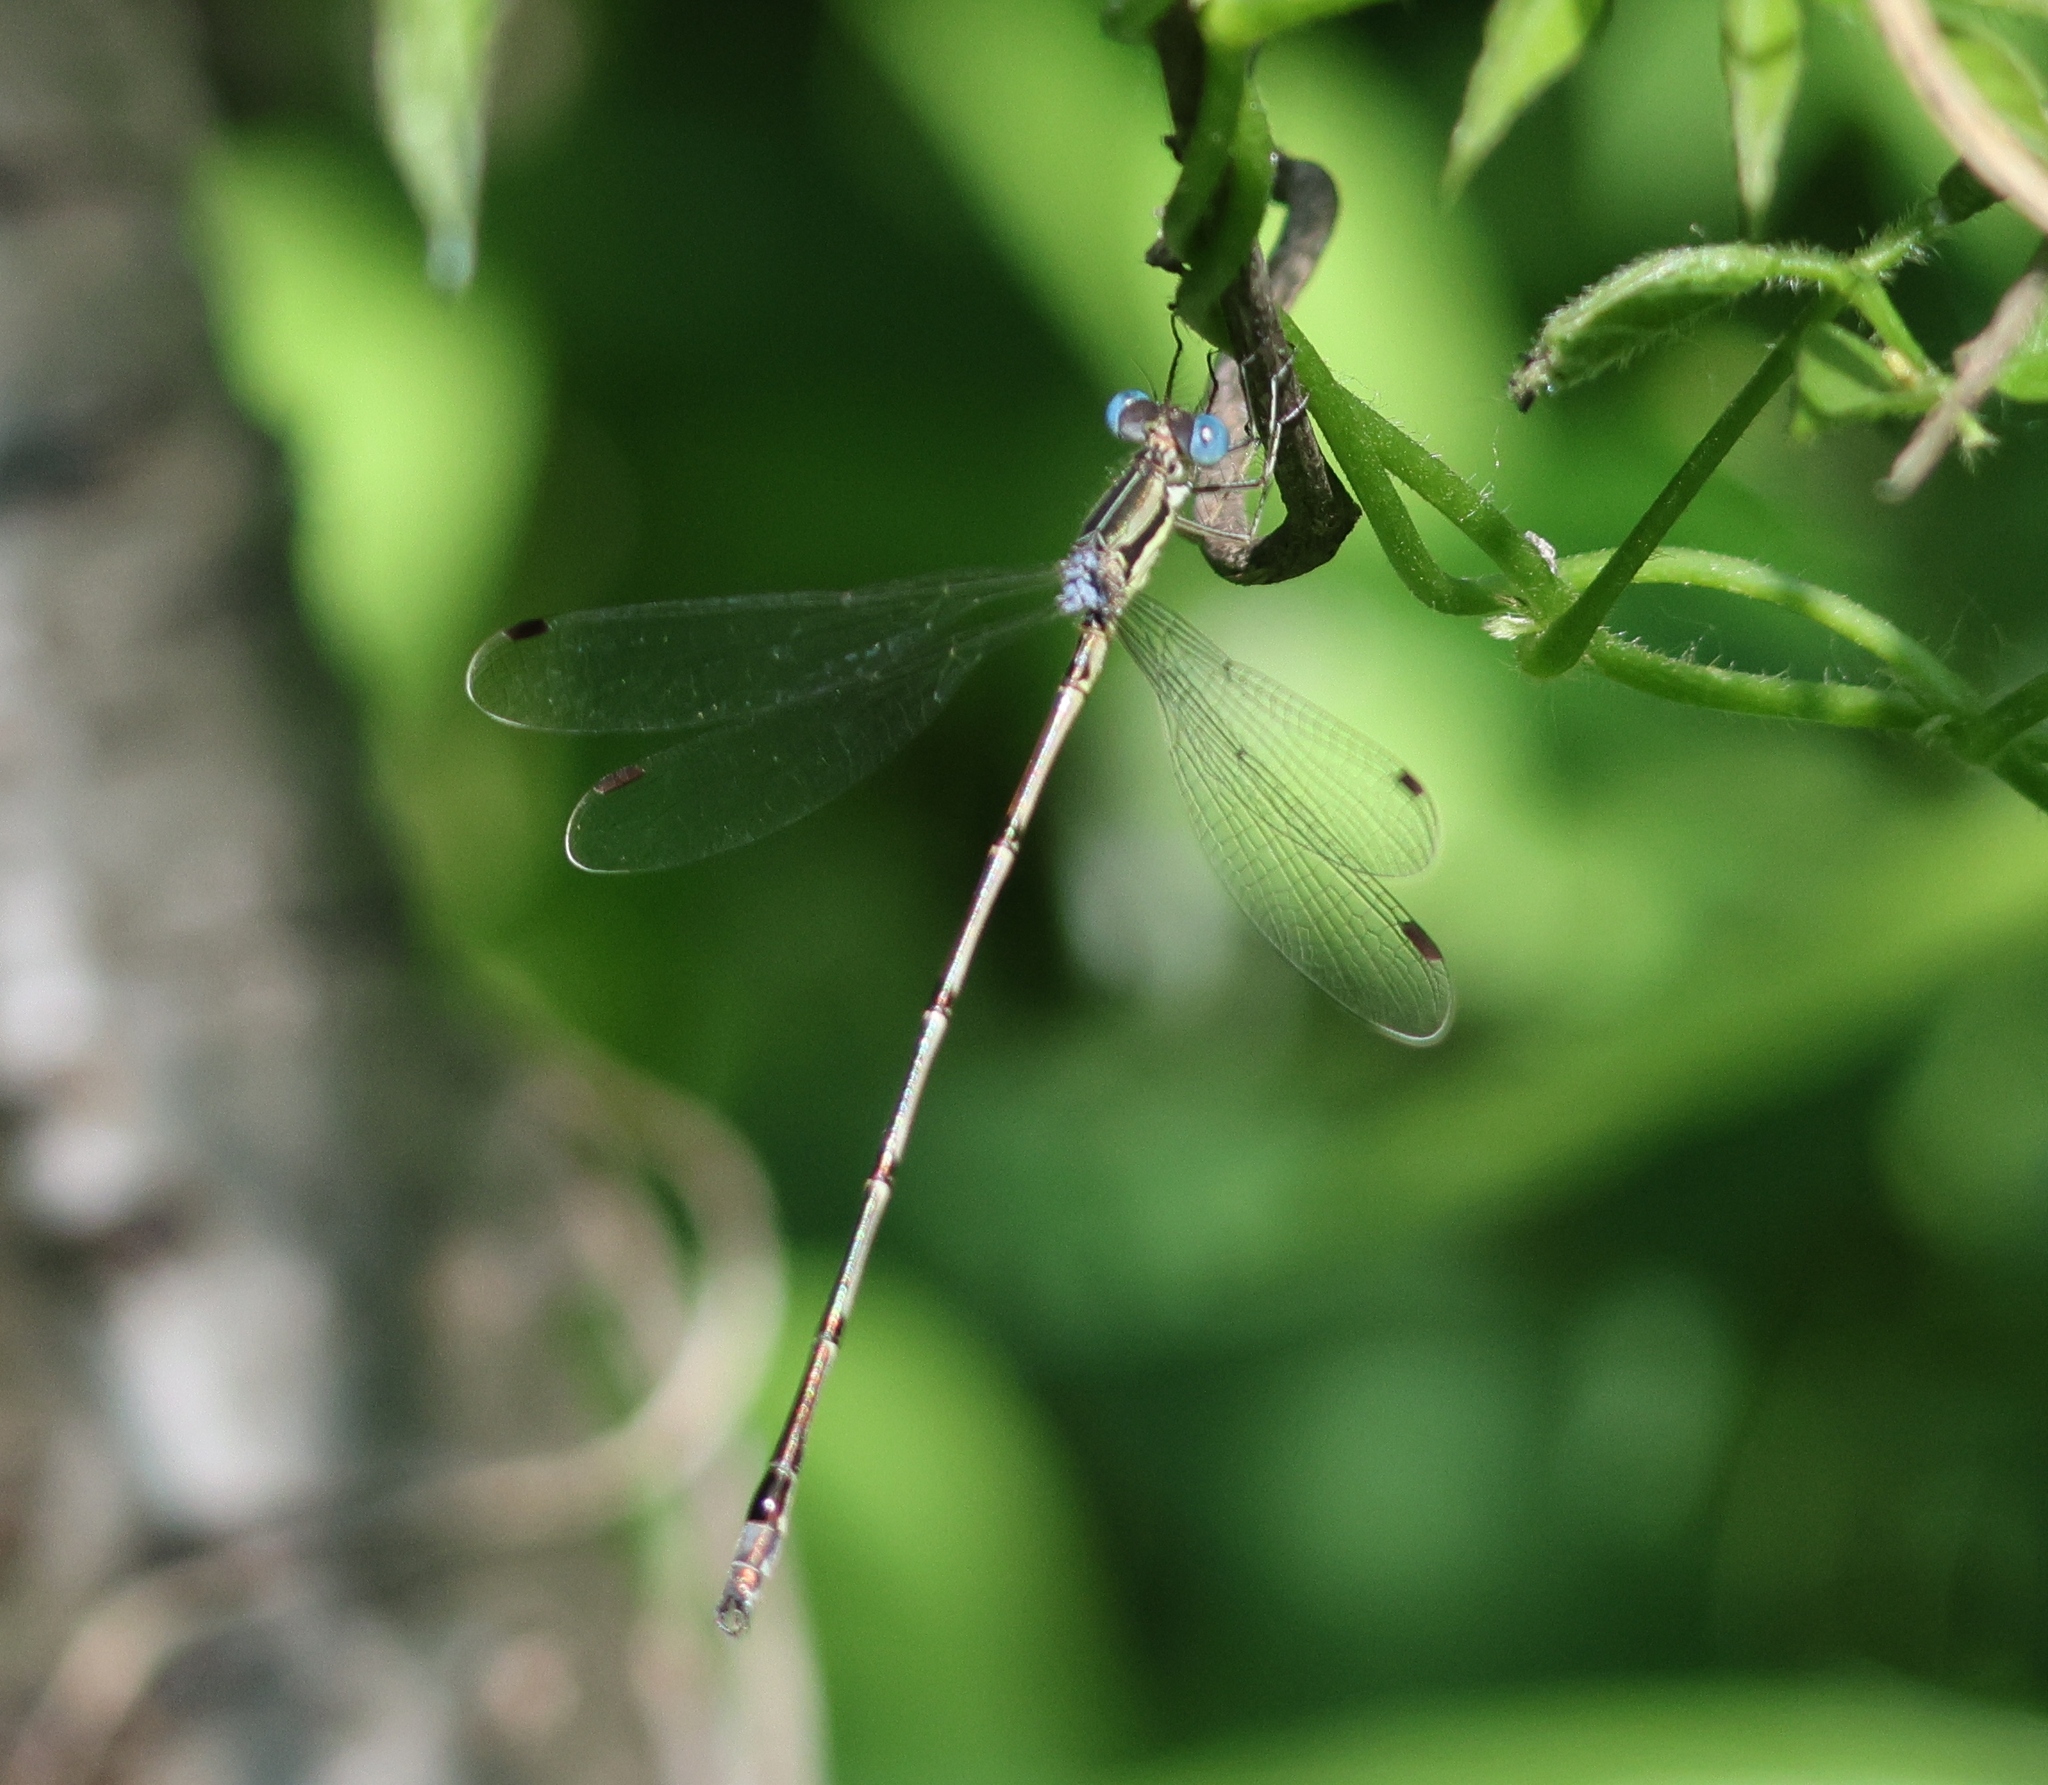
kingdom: Animalia
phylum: Arthropoda
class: Insecta
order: Odonata
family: Lestidae
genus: Lestes
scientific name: Lestes rectangularis
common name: Slender spreadwing
